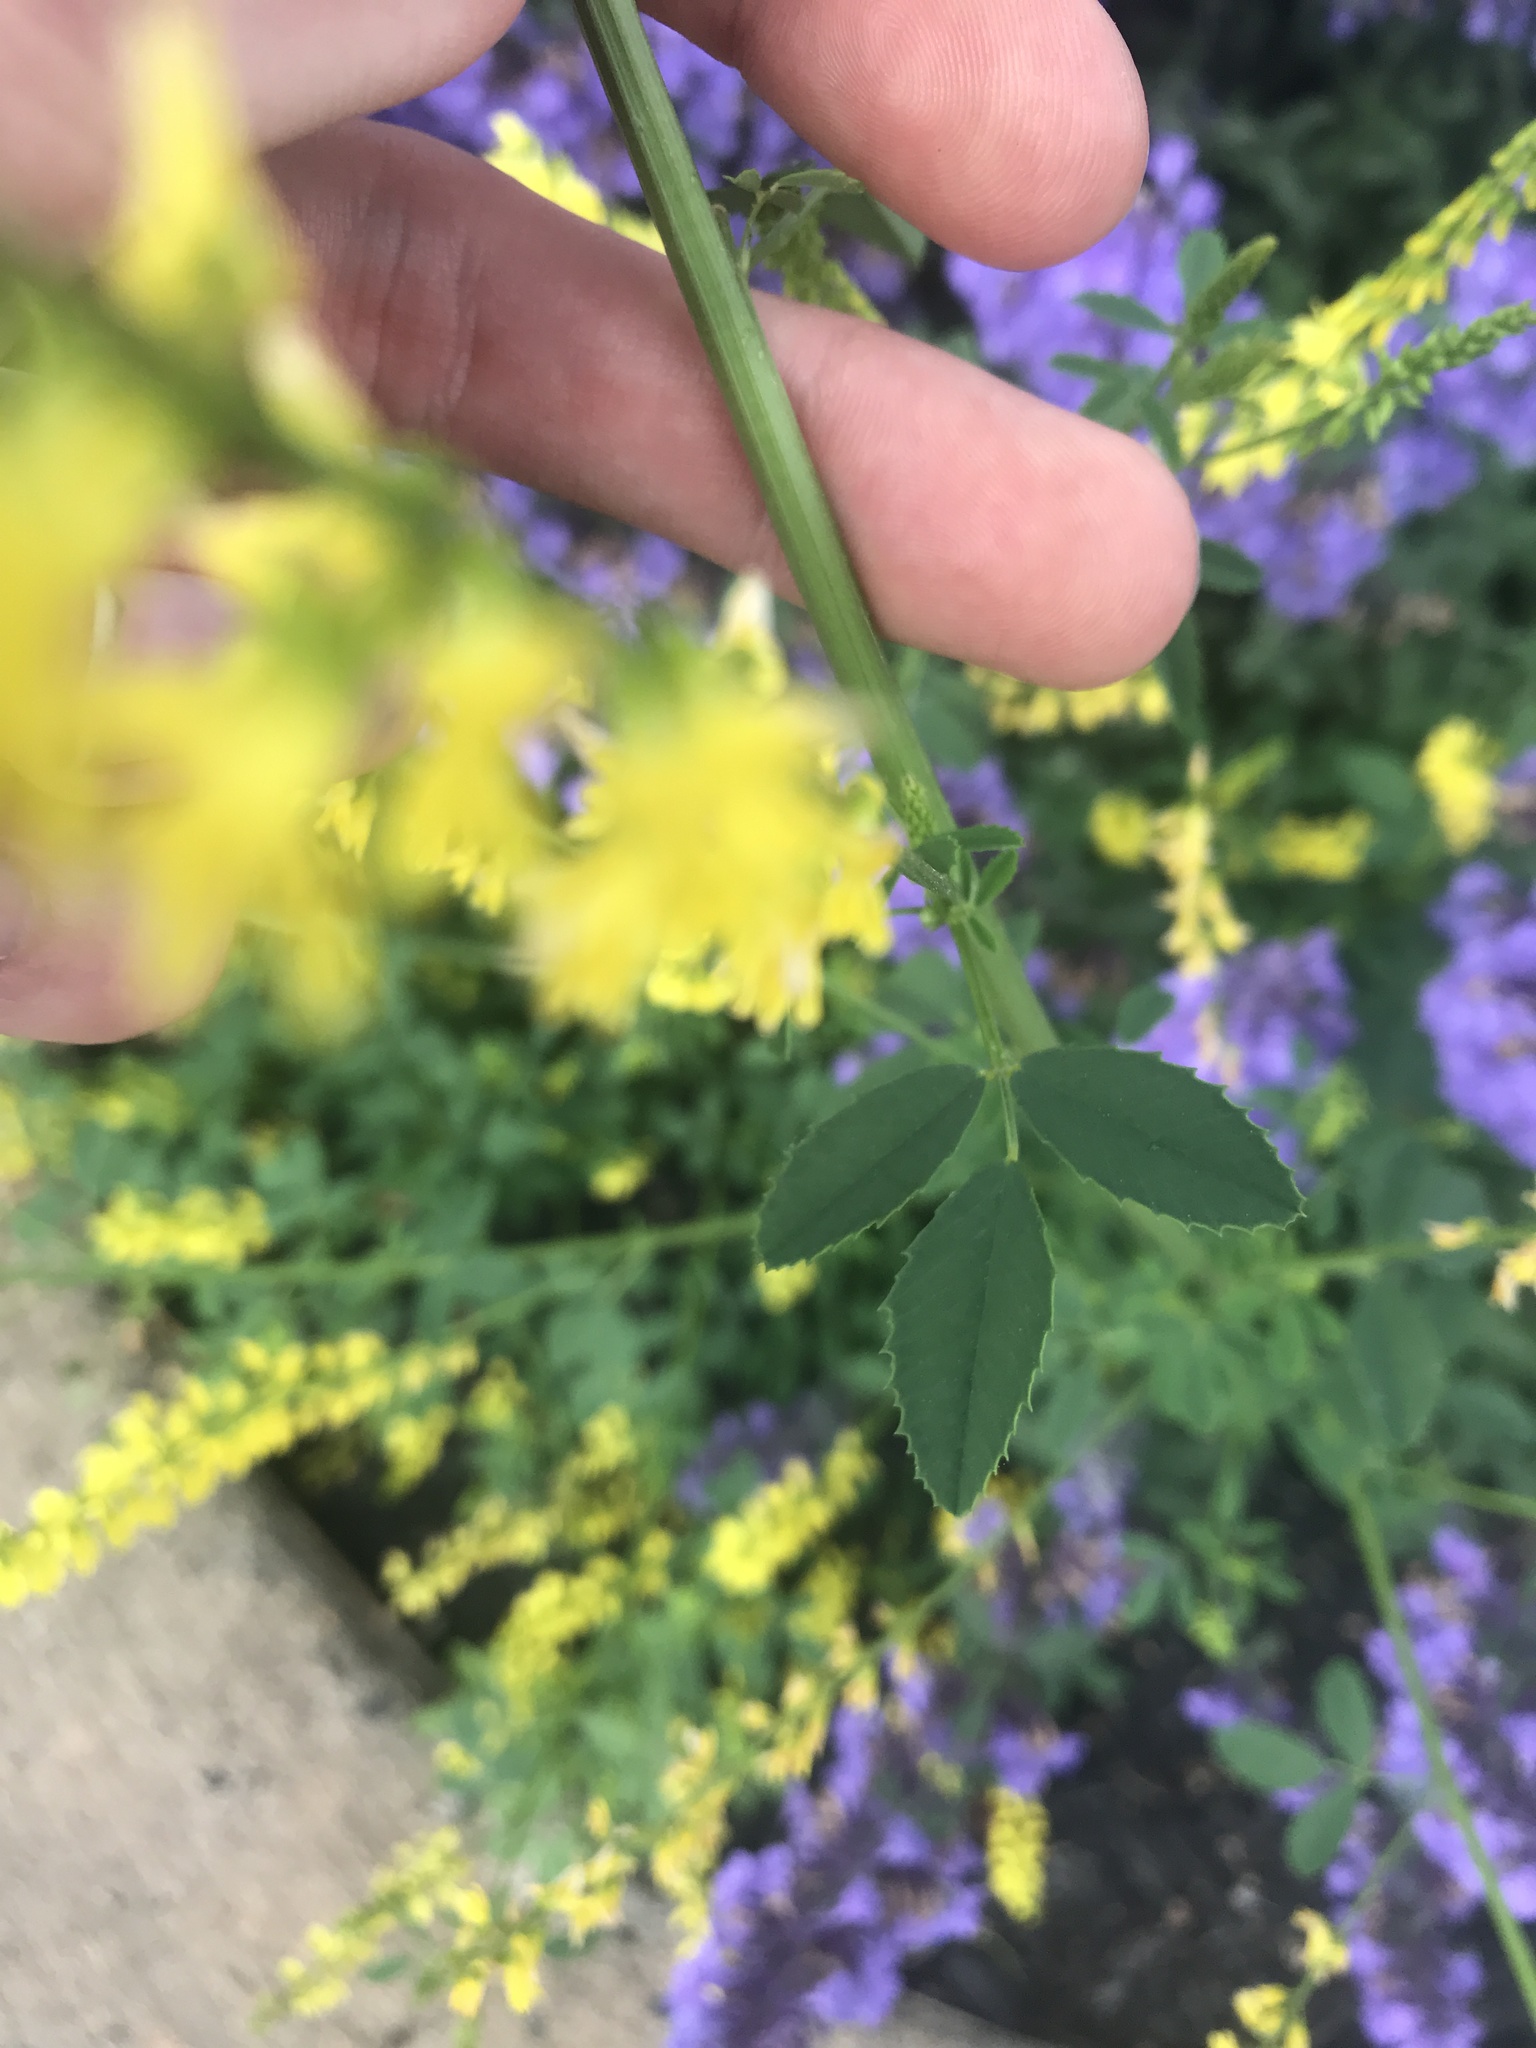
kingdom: Plantae
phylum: Tracheophyta
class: Magnoliopsida
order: Fabales
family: Fabaceae
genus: Melilotus
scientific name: Melilotus officinalis
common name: Sweetclover
